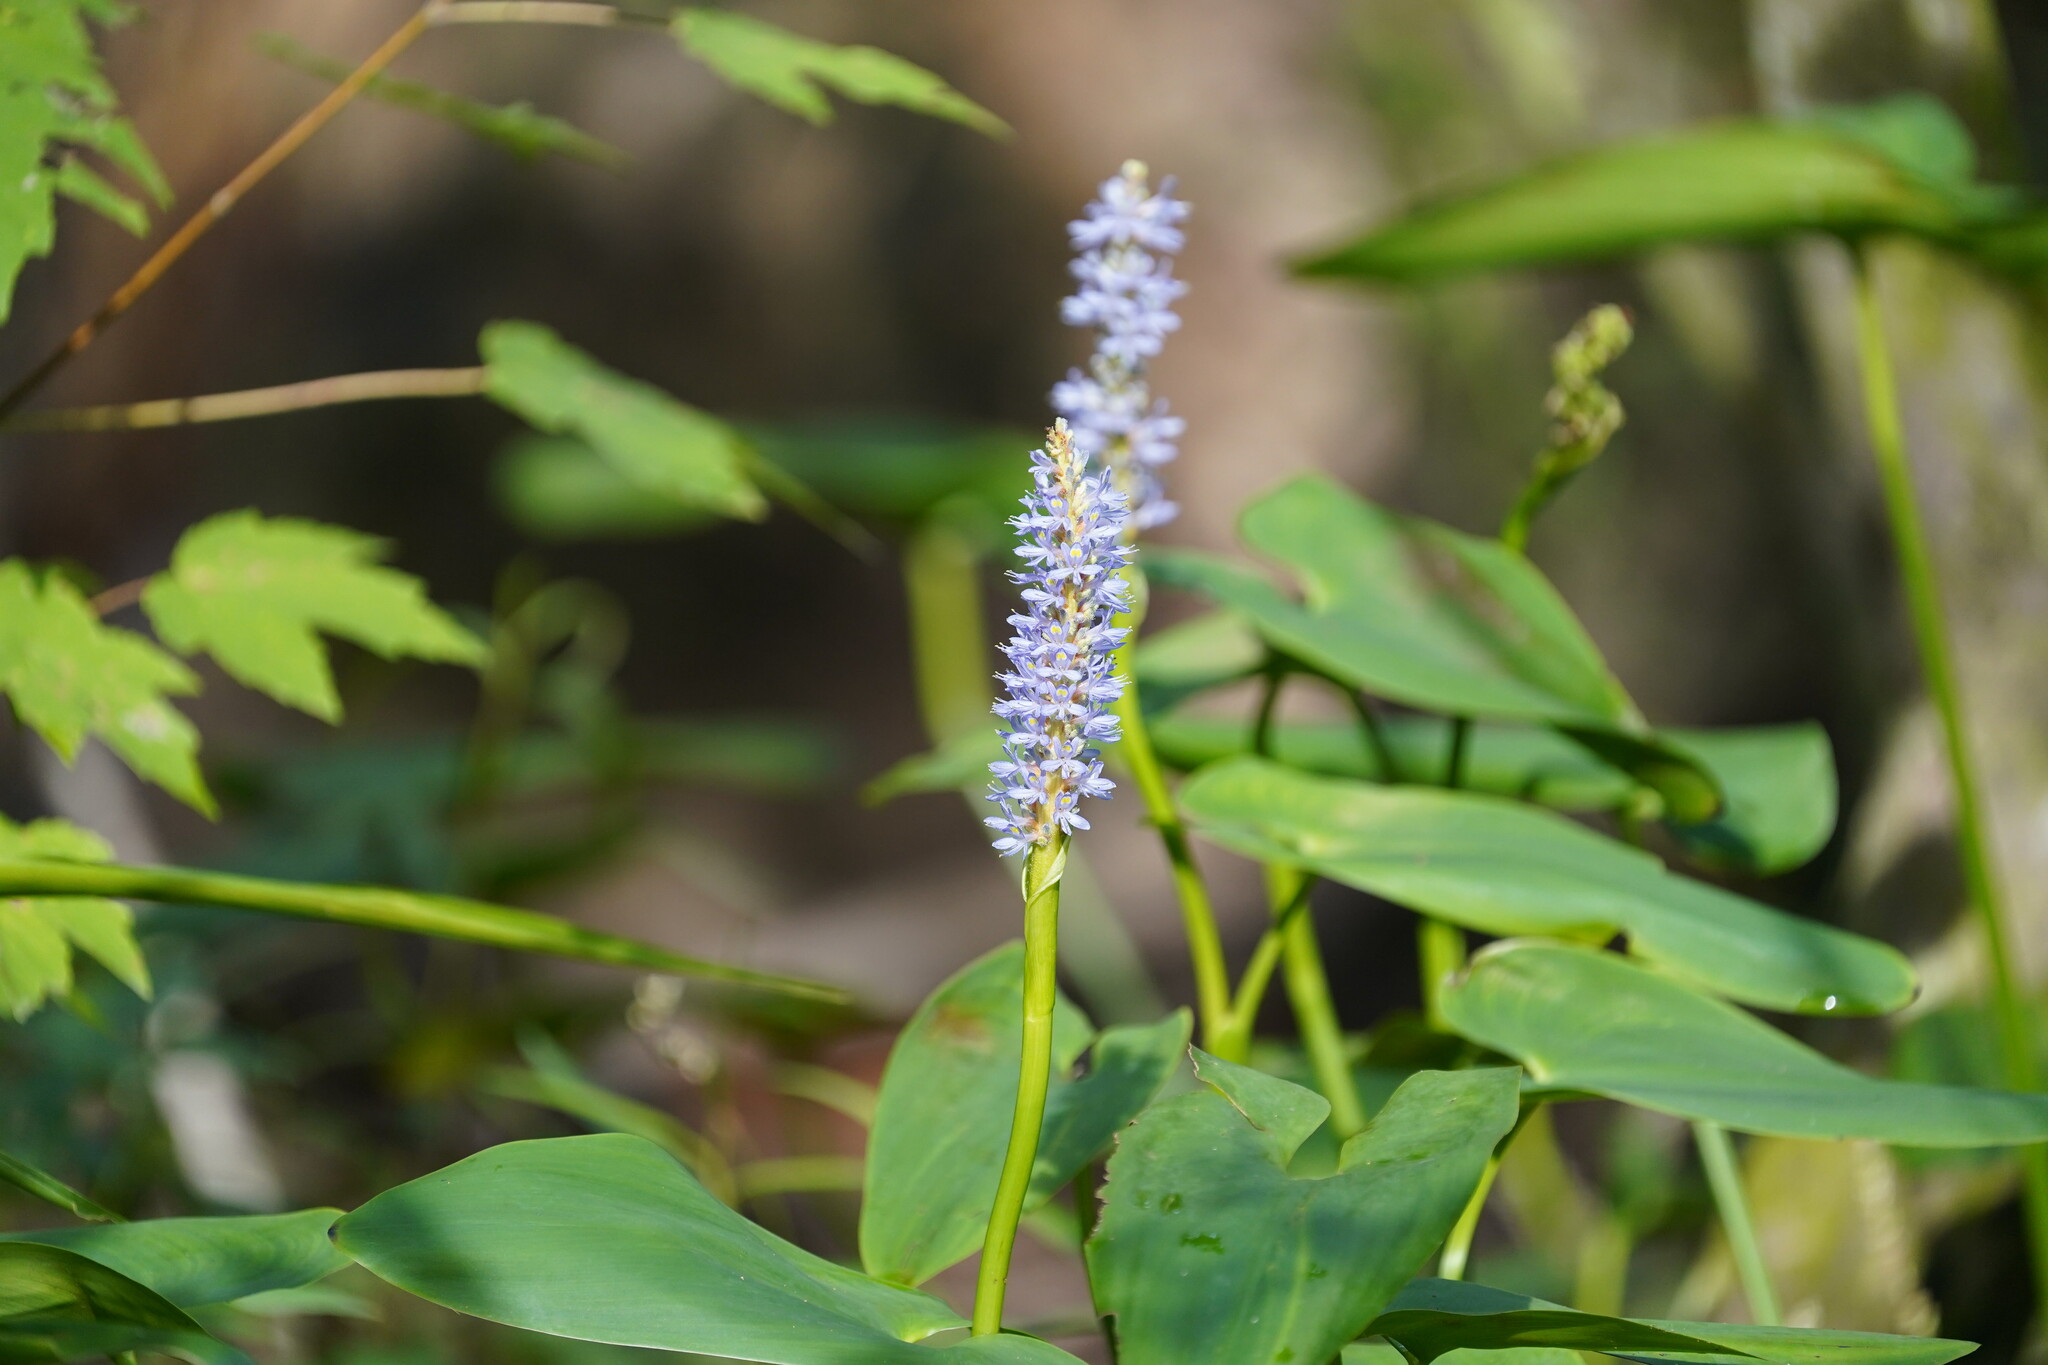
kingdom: Plantae
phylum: Tracheophyta
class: Liliopsida
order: Commelinales
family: Pontederiaceae
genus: Pontederia
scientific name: Pontederia cordata
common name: Pickerelweed
